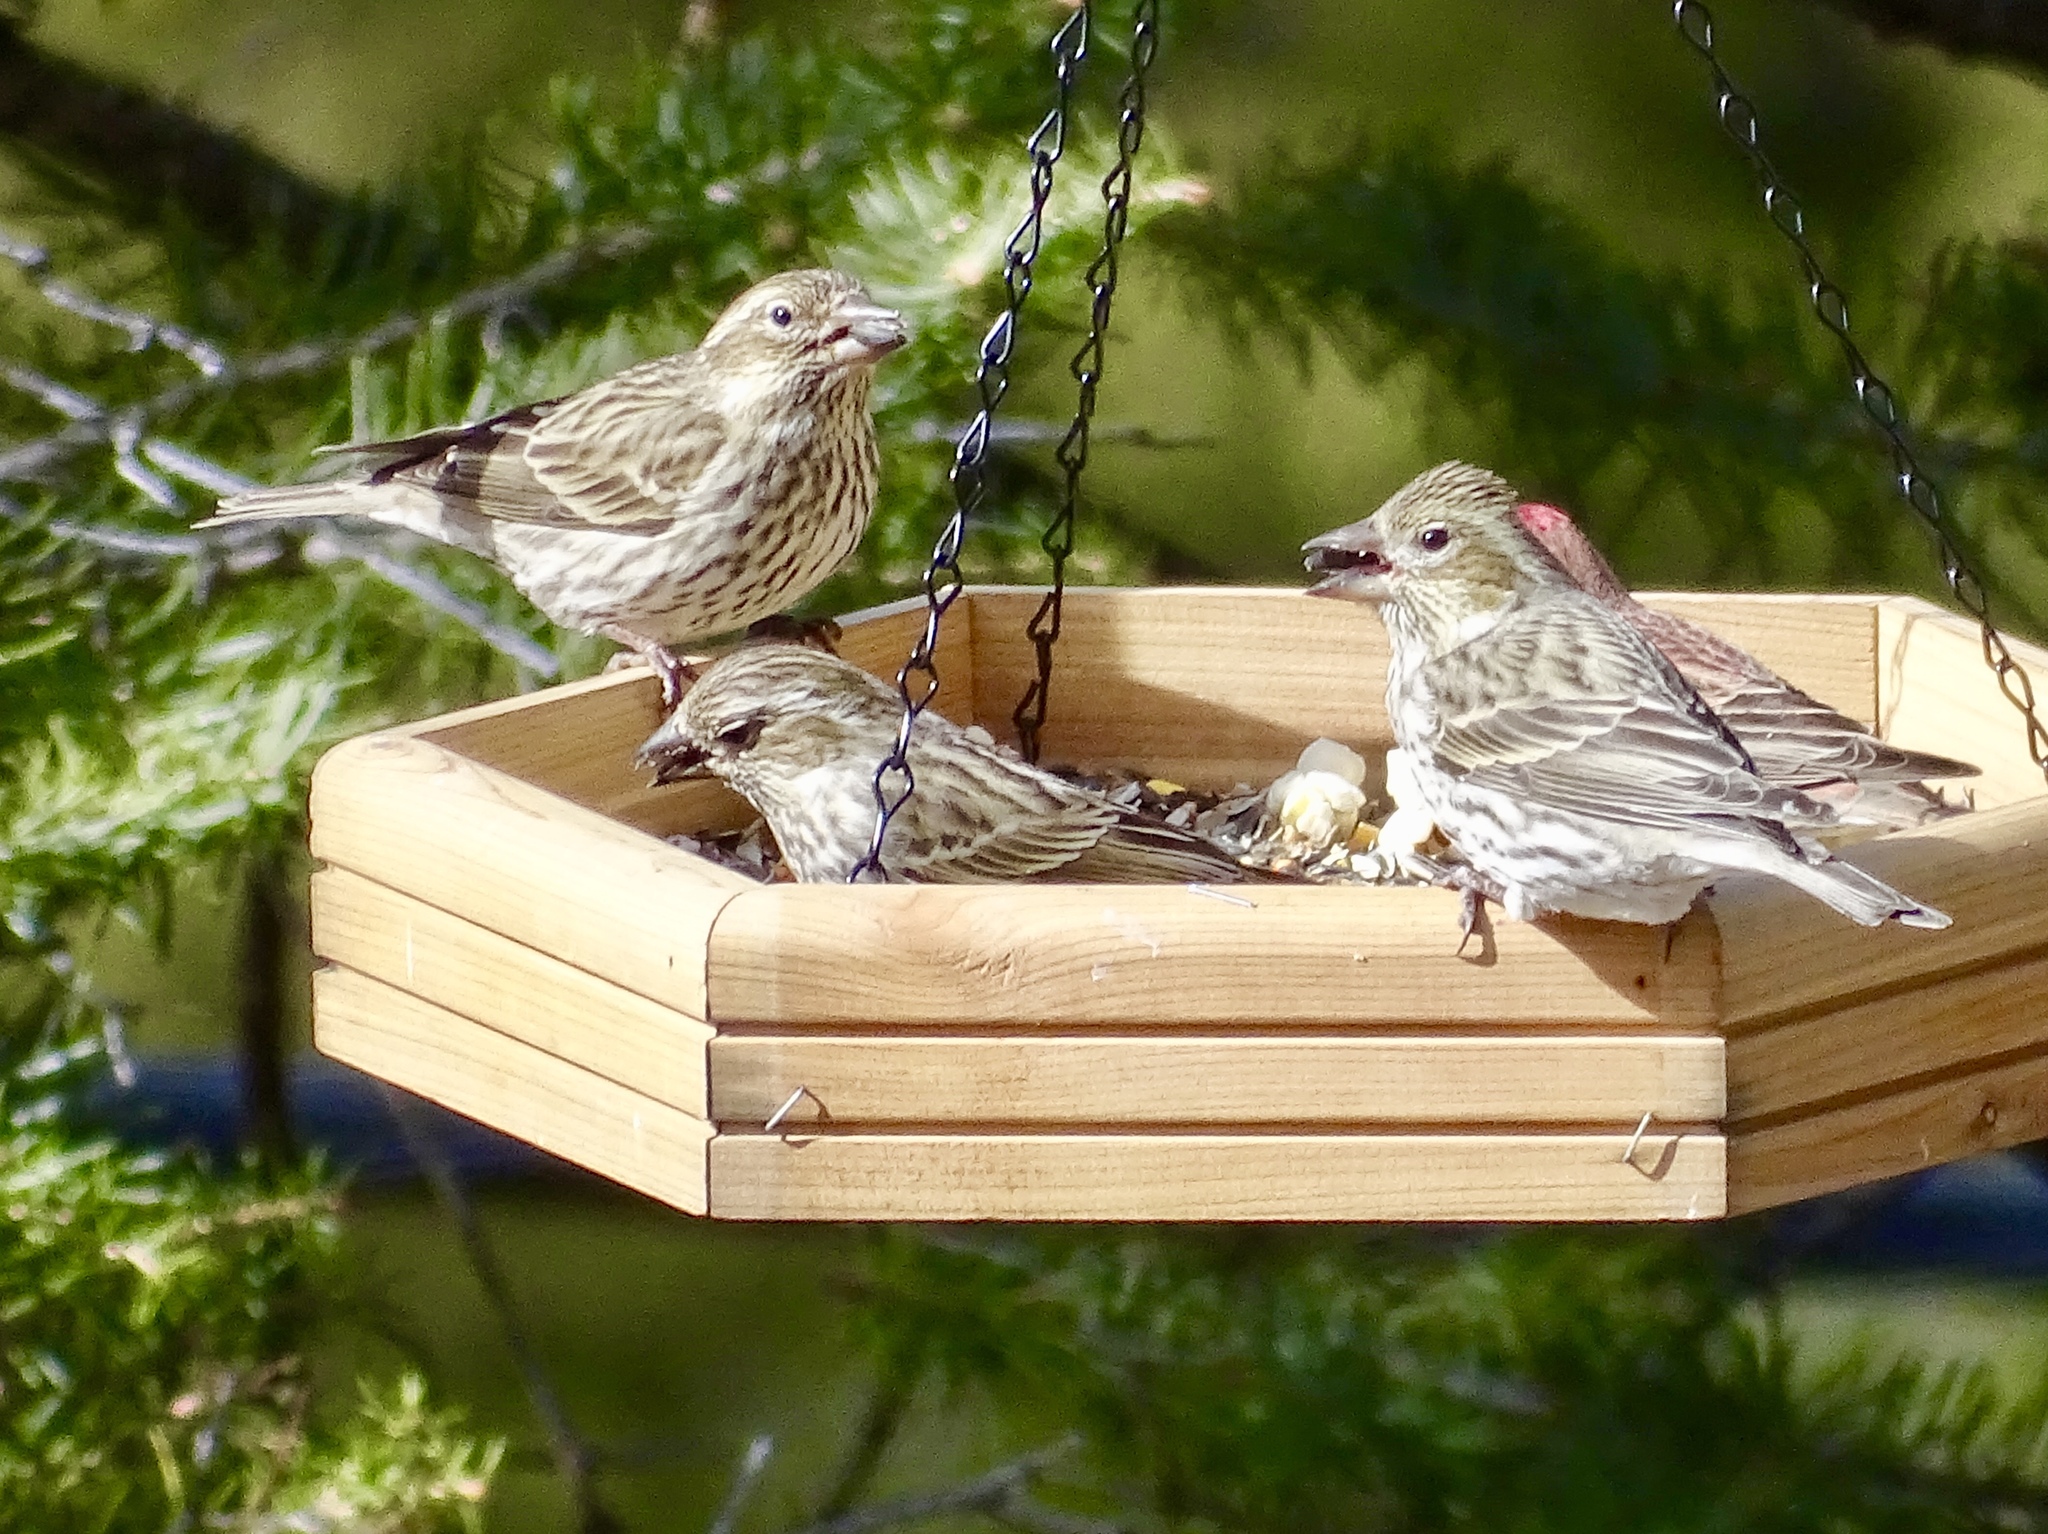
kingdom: Animalia
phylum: Chordata
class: Aves
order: Passeriformes
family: Fringillidae
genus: Haemorhous
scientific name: Haemorhous cassinii
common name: Cassin's finch
